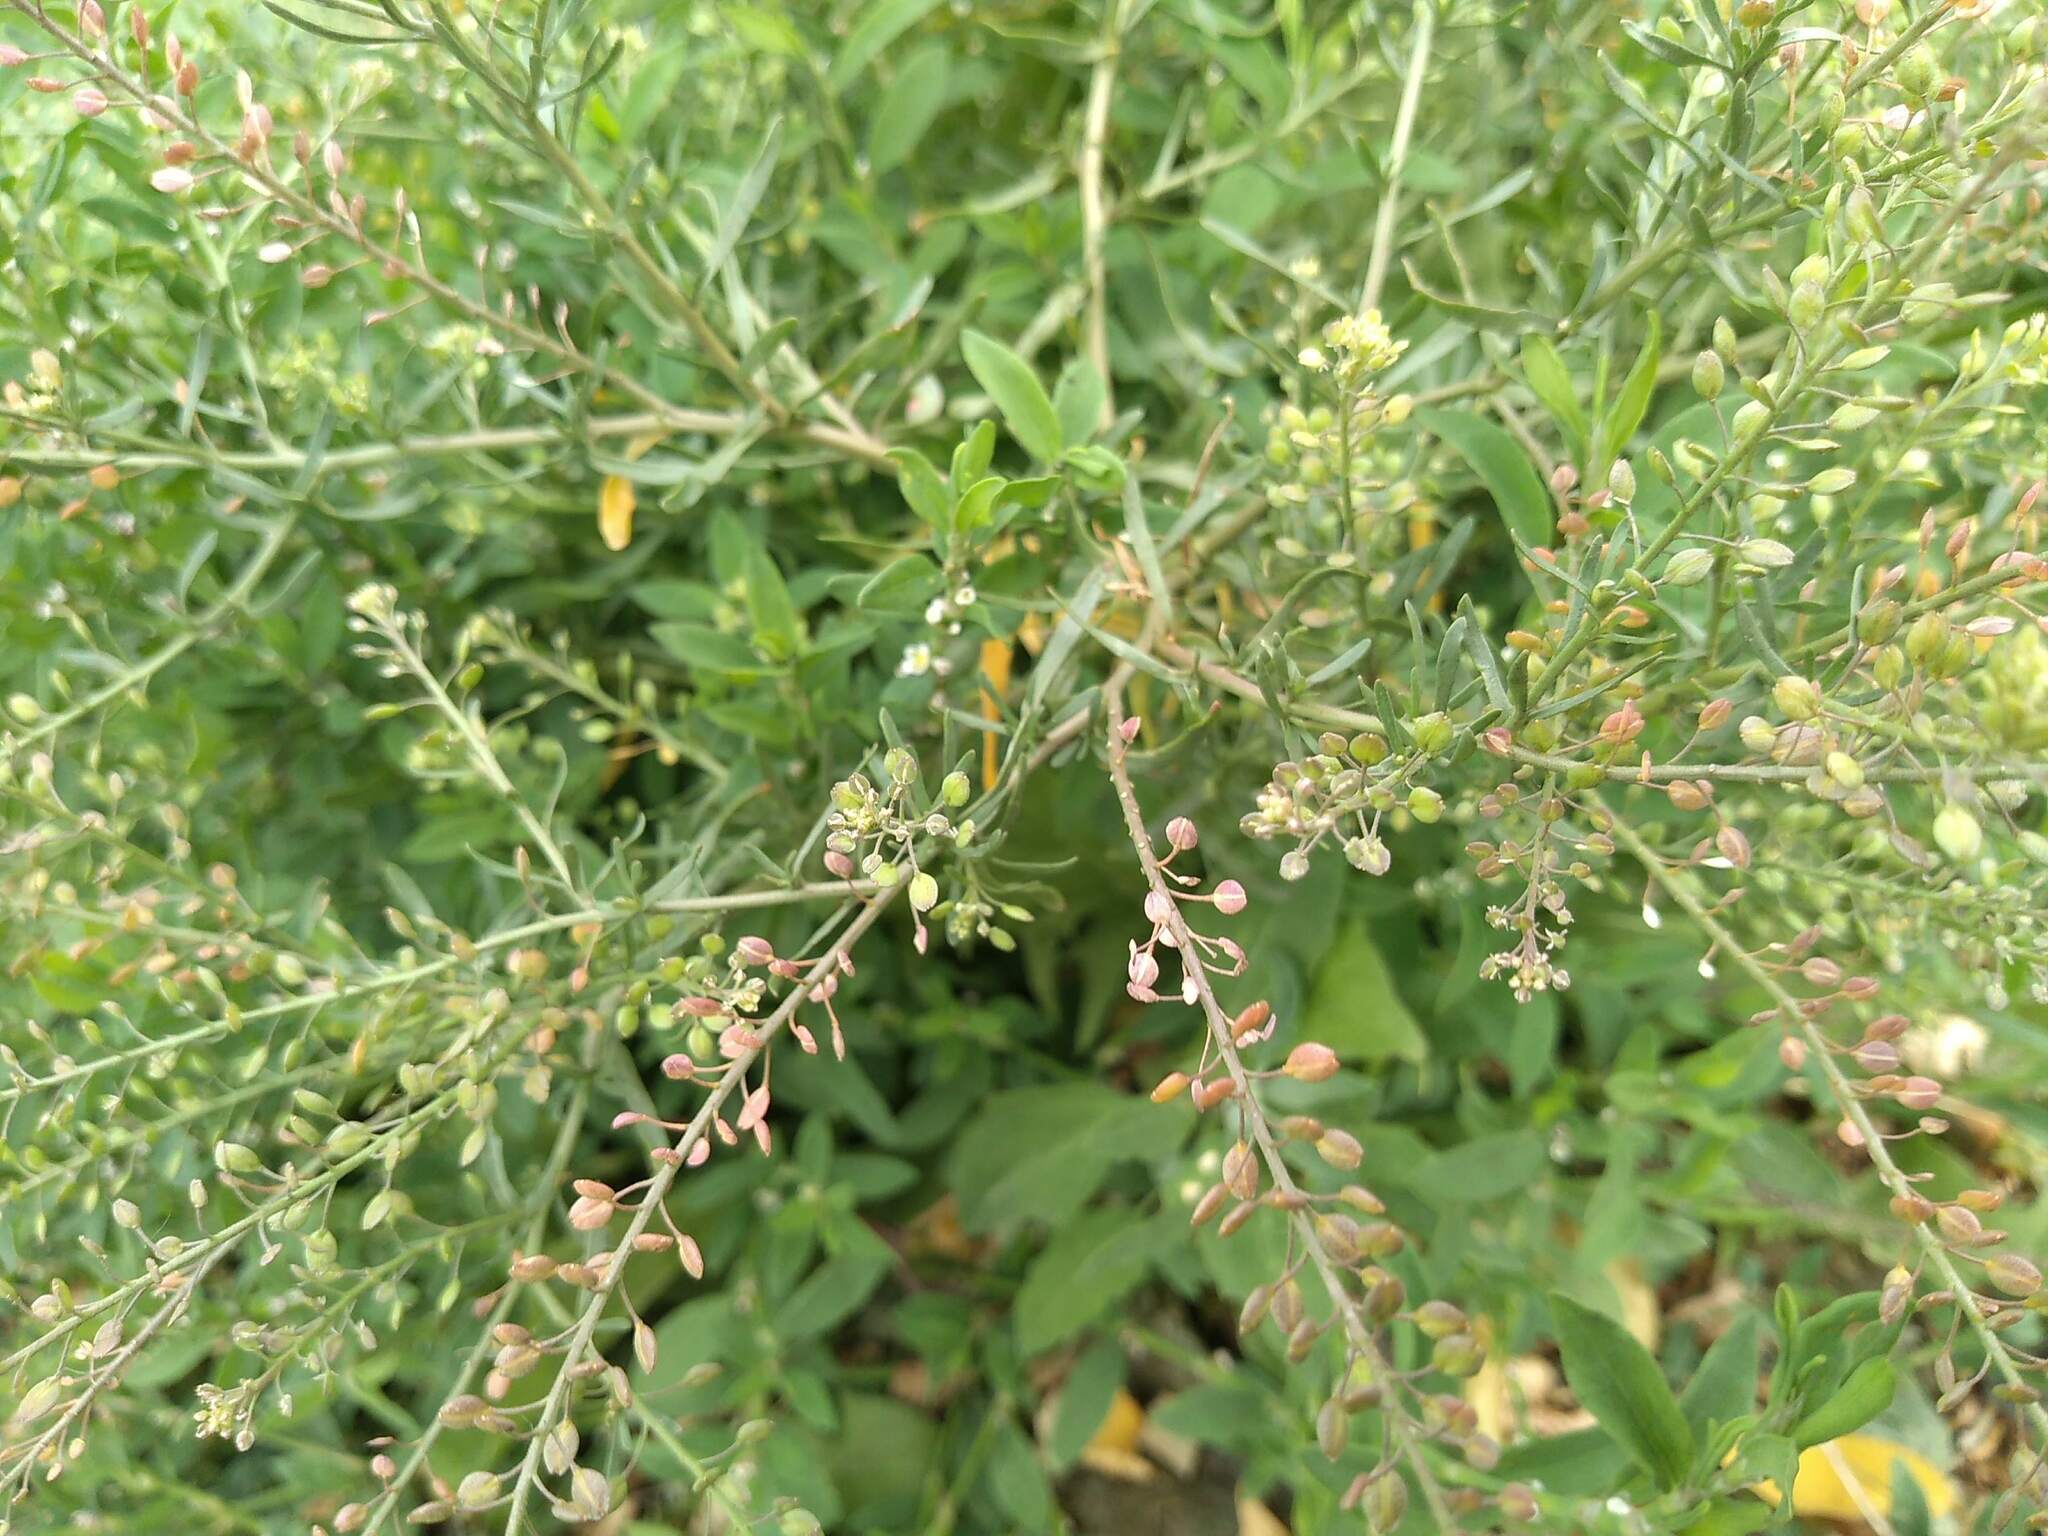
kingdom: Plantae
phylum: Tracheophyta
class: Magnoliopsida
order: Brassicales
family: Brassicaceae
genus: Lepidium
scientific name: Lepidium ruderale
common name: Narrow-leaved pepperwort
